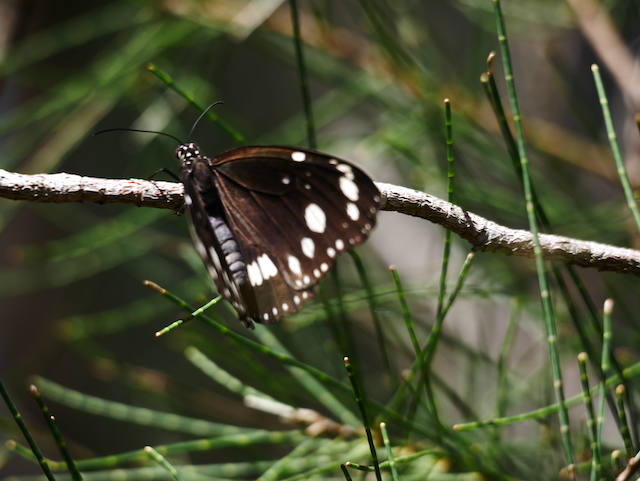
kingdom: Animalia
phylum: Arthropoda
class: Insecta
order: Lepidoptera
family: Nymphalidae
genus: Euploea
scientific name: Euploea core
